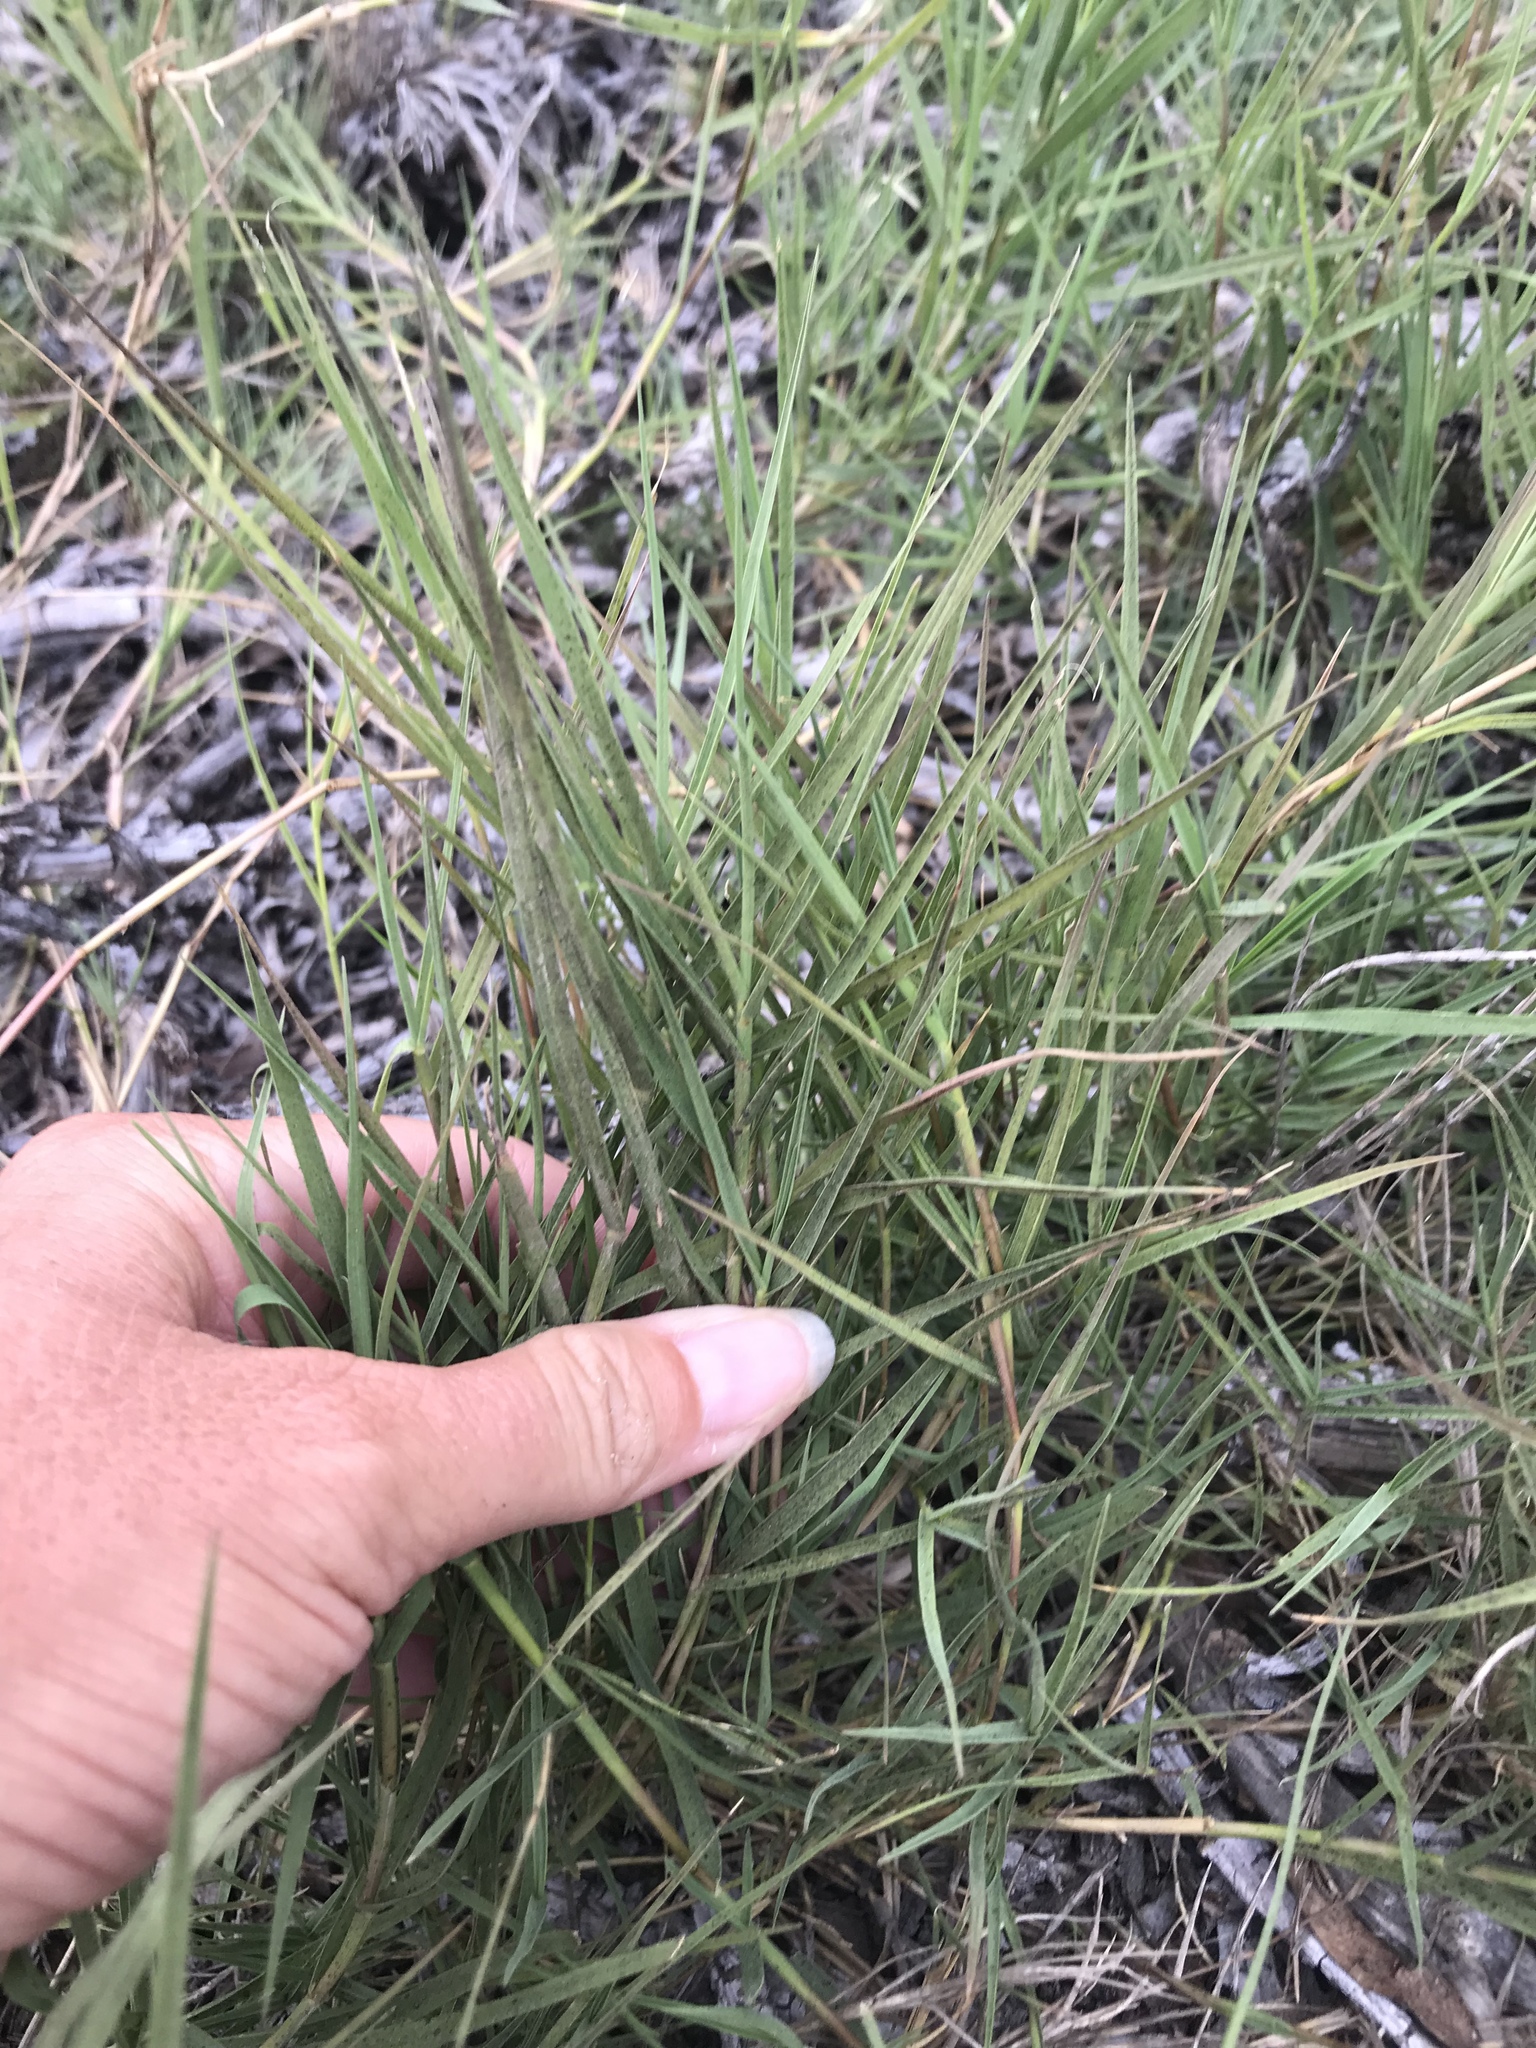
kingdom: Plantae
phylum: Tracheophyta
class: Liliopsida
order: Poales
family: Poaceae
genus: Distichlis
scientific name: Distichlis spicata
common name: Saltgrass
